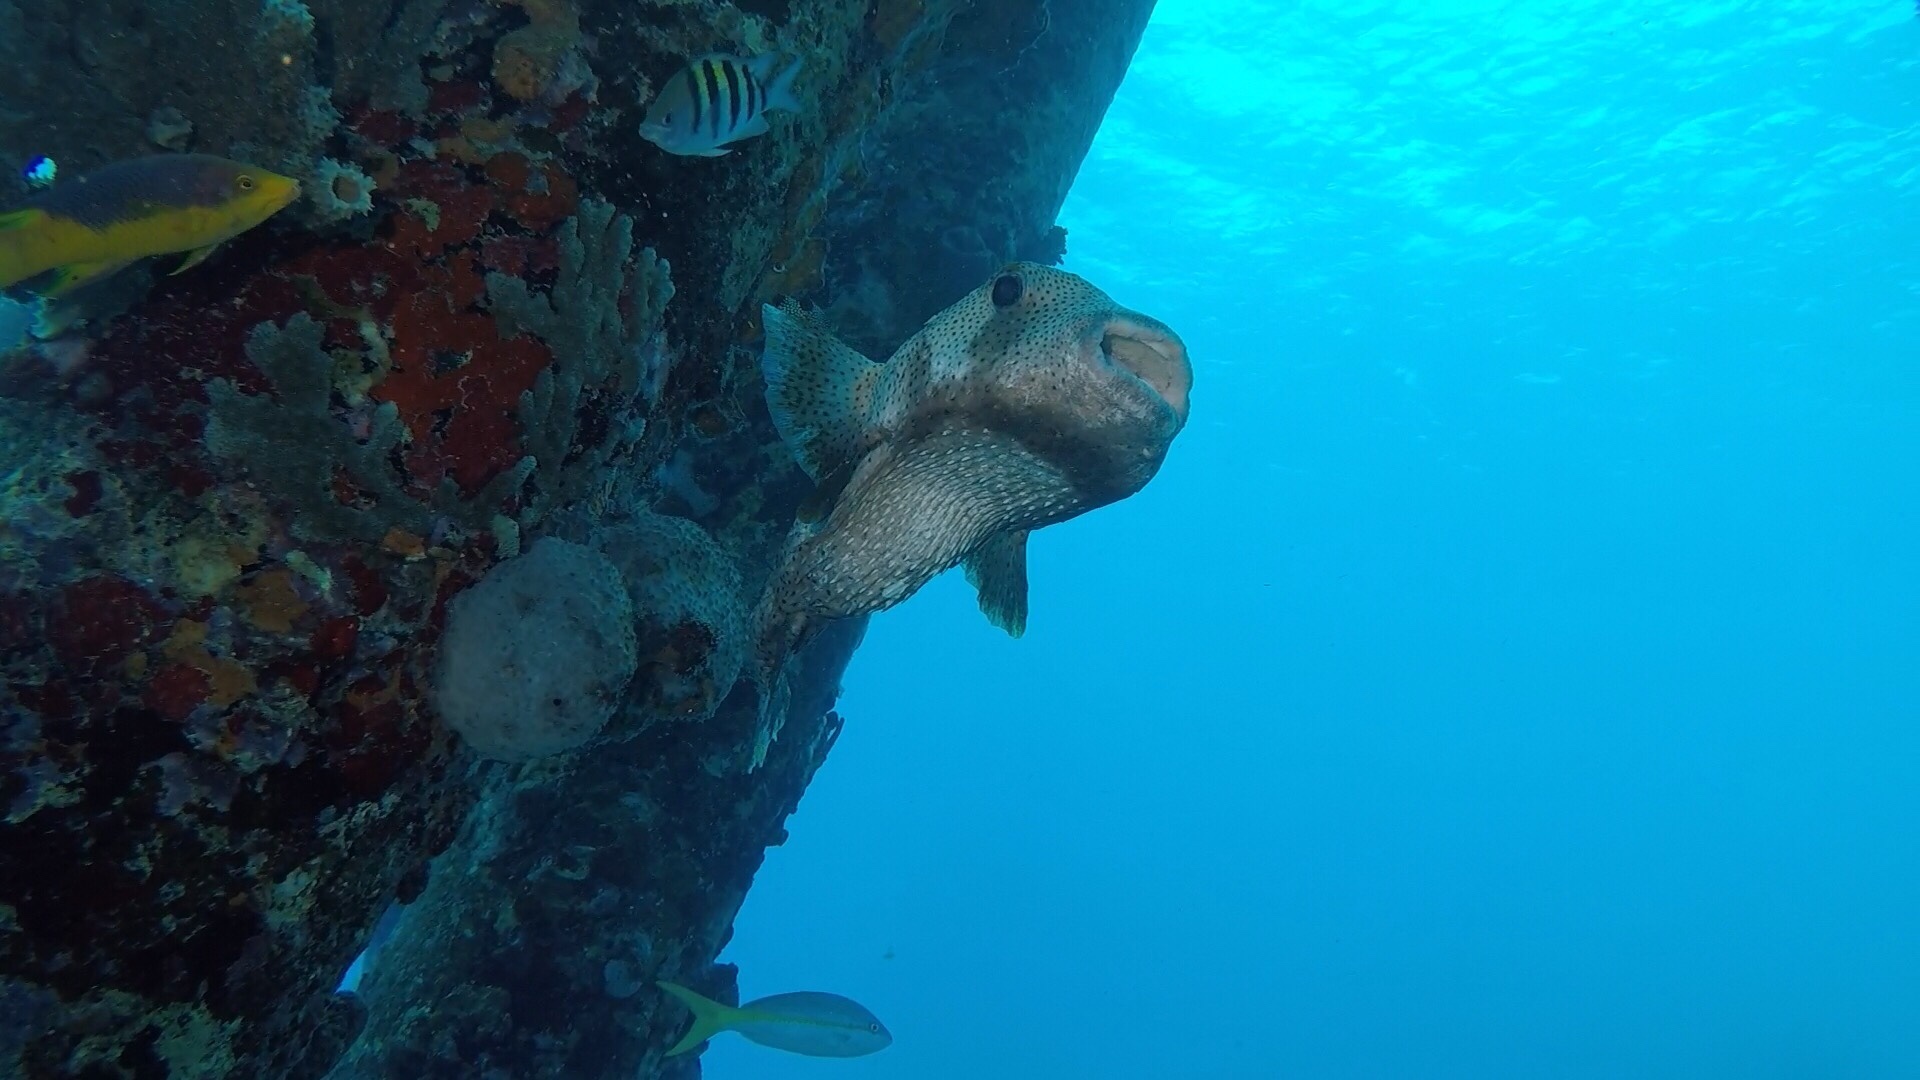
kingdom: Animalia
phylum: Chordata
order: Tetraodontiformes
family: Diodontidae
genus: Diodon
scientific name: Diodon hystrix
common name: Giant porcupinefish
